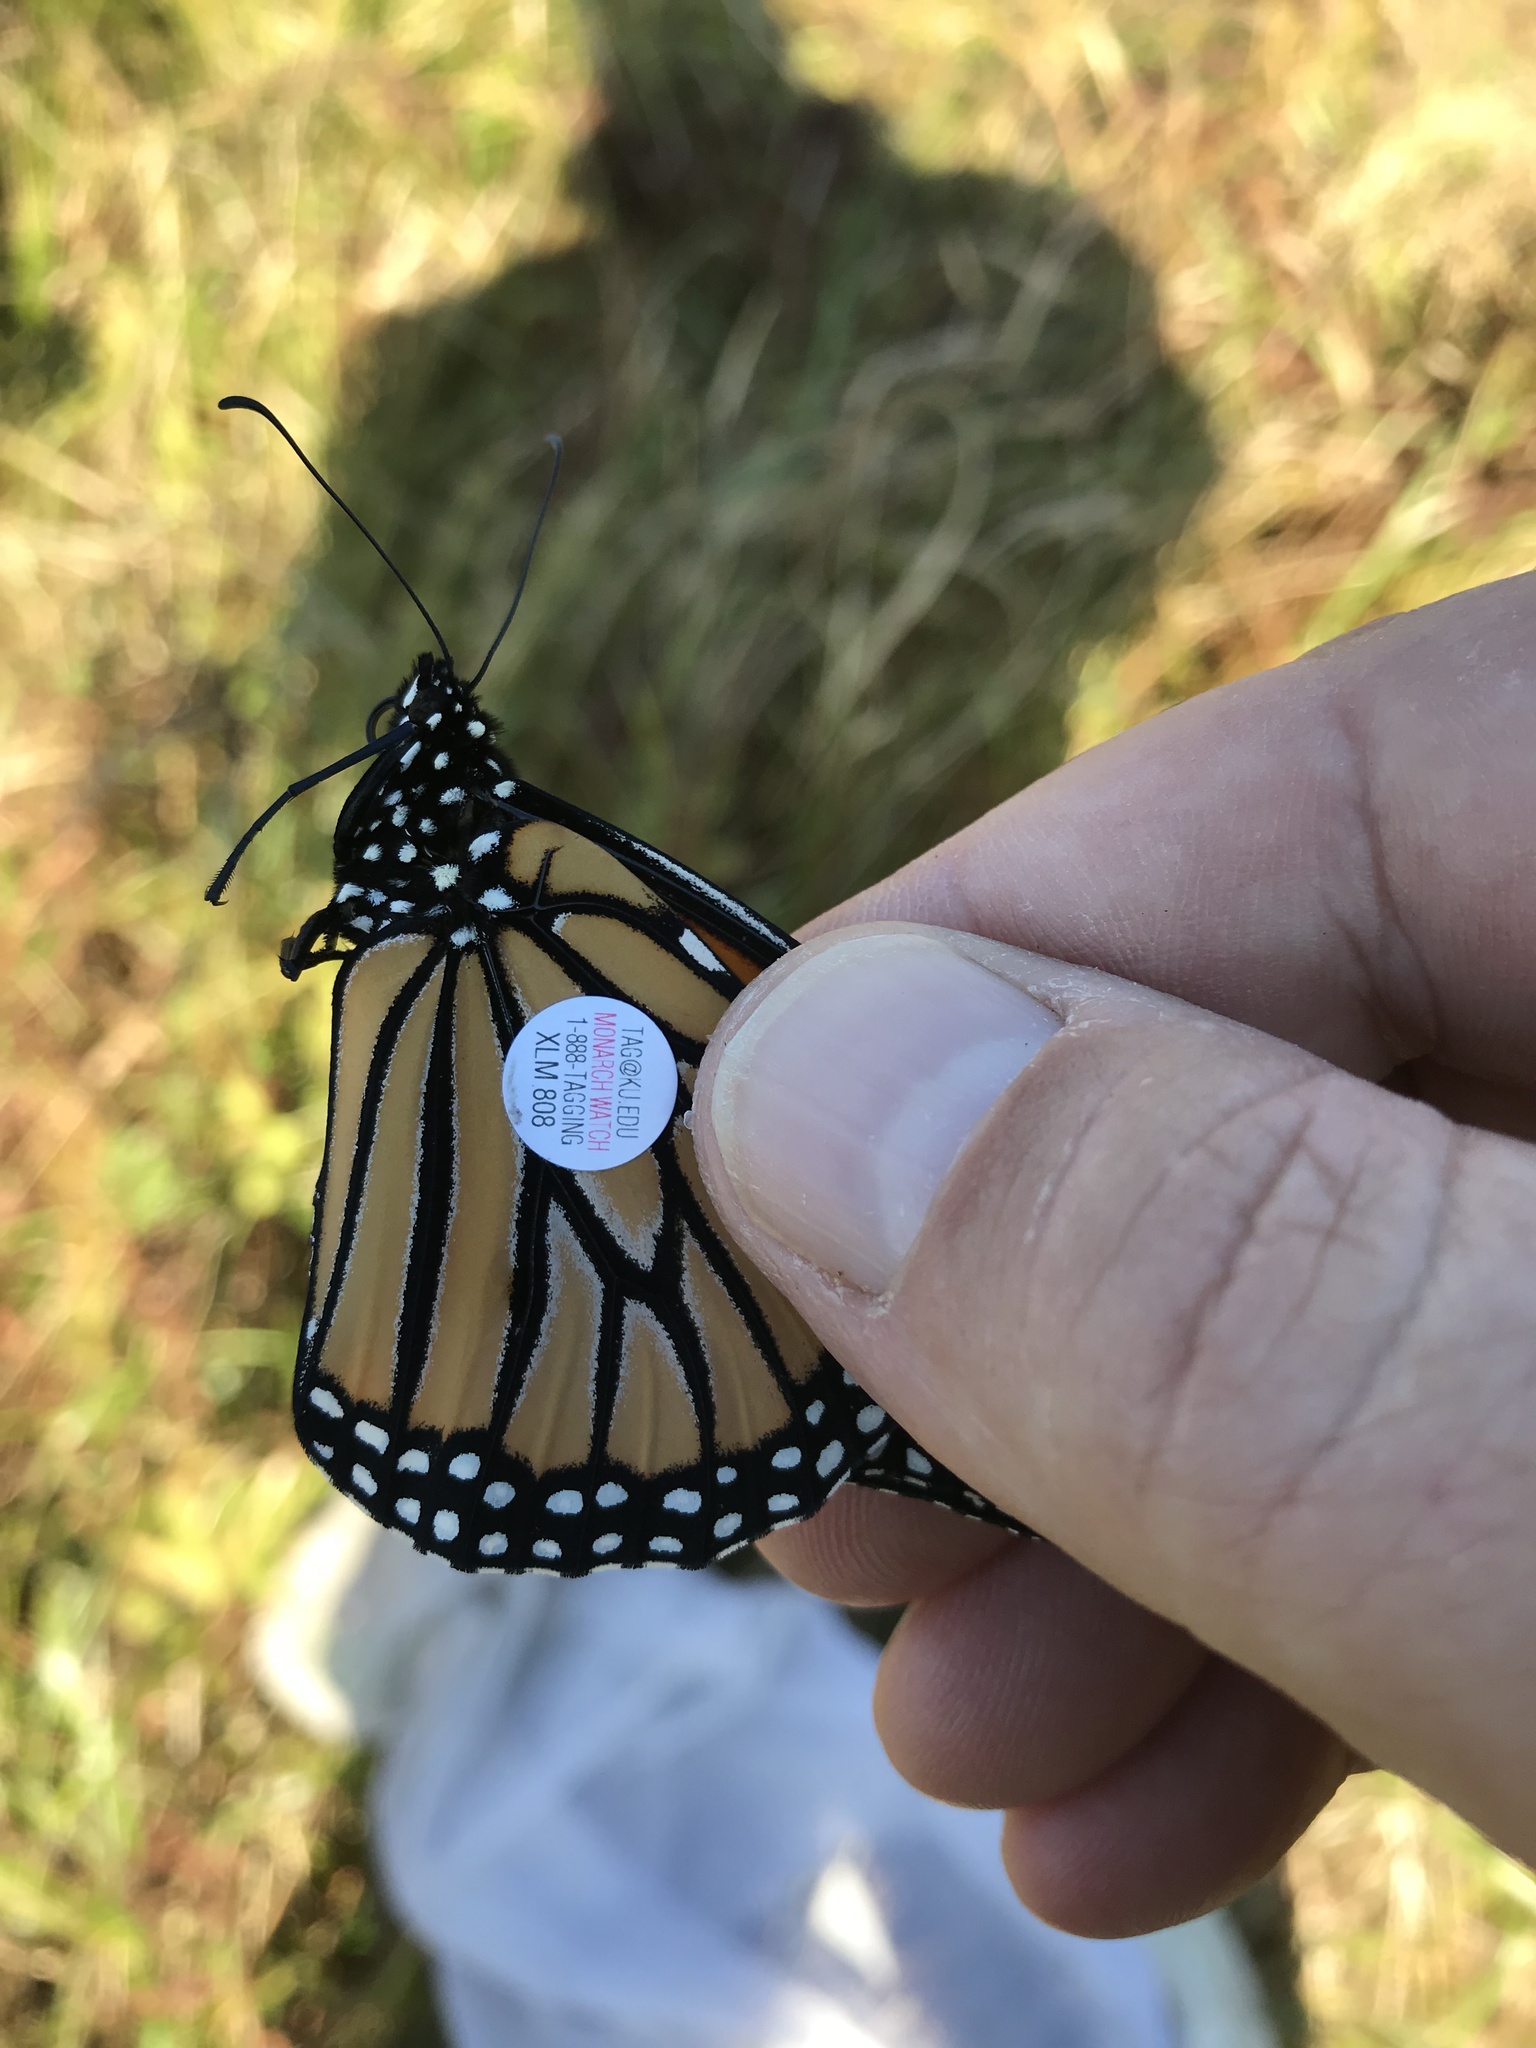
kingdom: Animalia
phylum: Arthropoda
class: Insecta
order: Lepidoptera
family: Nymphalidae
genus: Danaus
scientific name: Danaus plexippus
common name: Monarch
